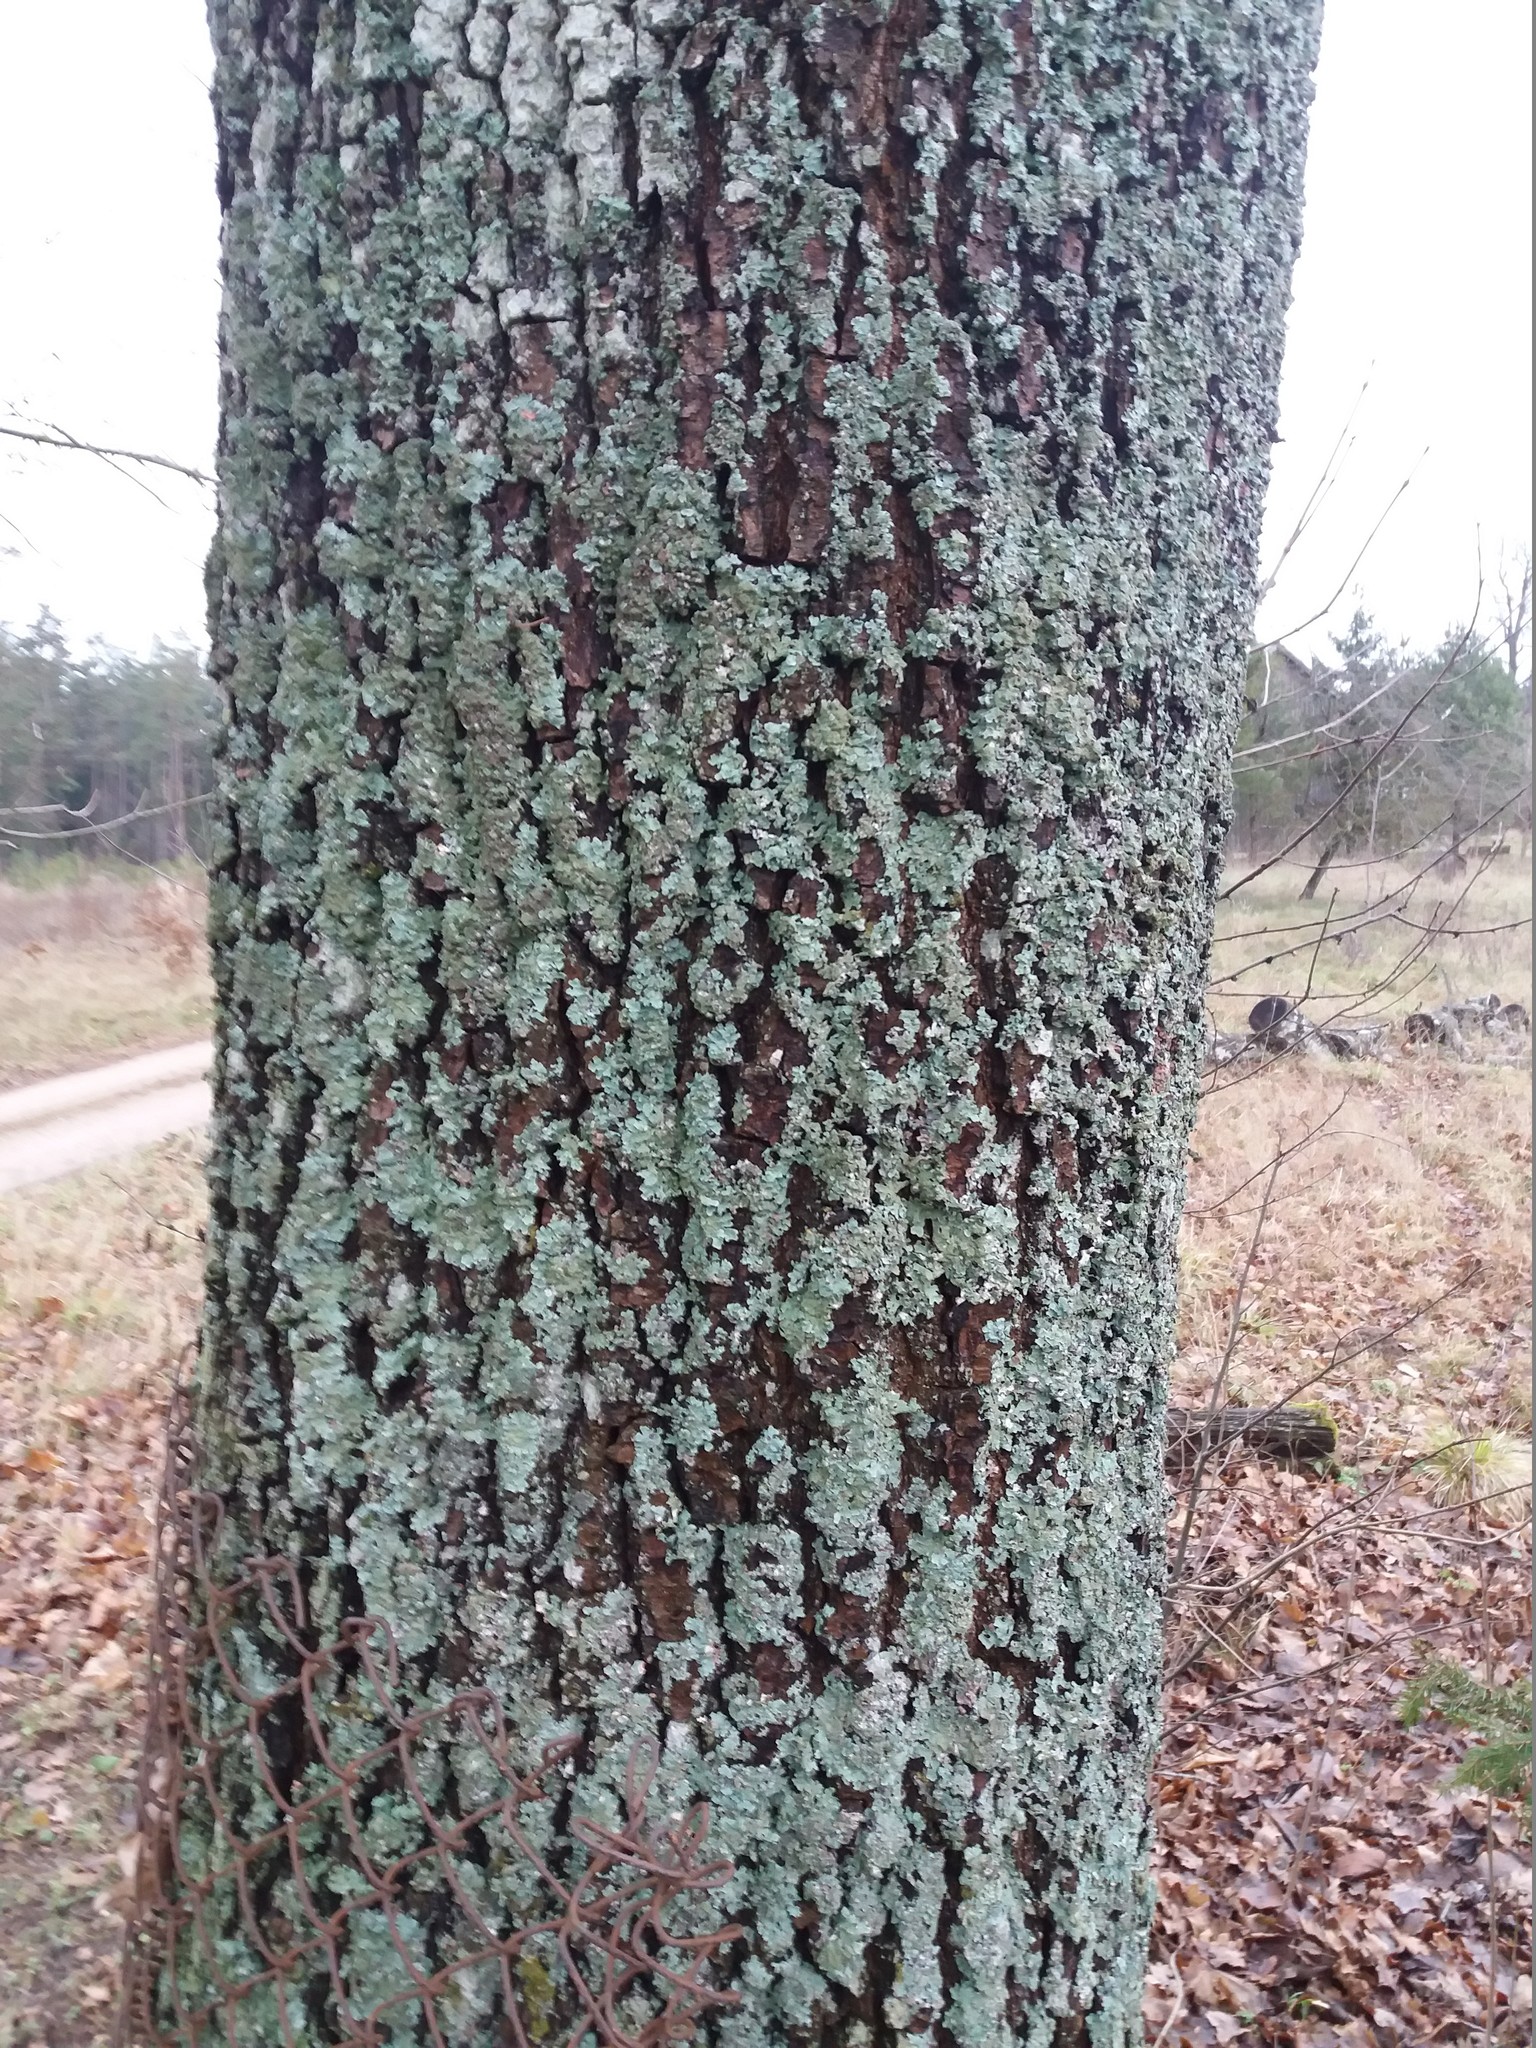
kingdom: Plantae
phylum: Tracheophyta
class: Magnoliopsida
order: Fagales
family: Fagaceae
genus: Quercus
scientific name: Quercus robur
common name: Pedunculate oak
